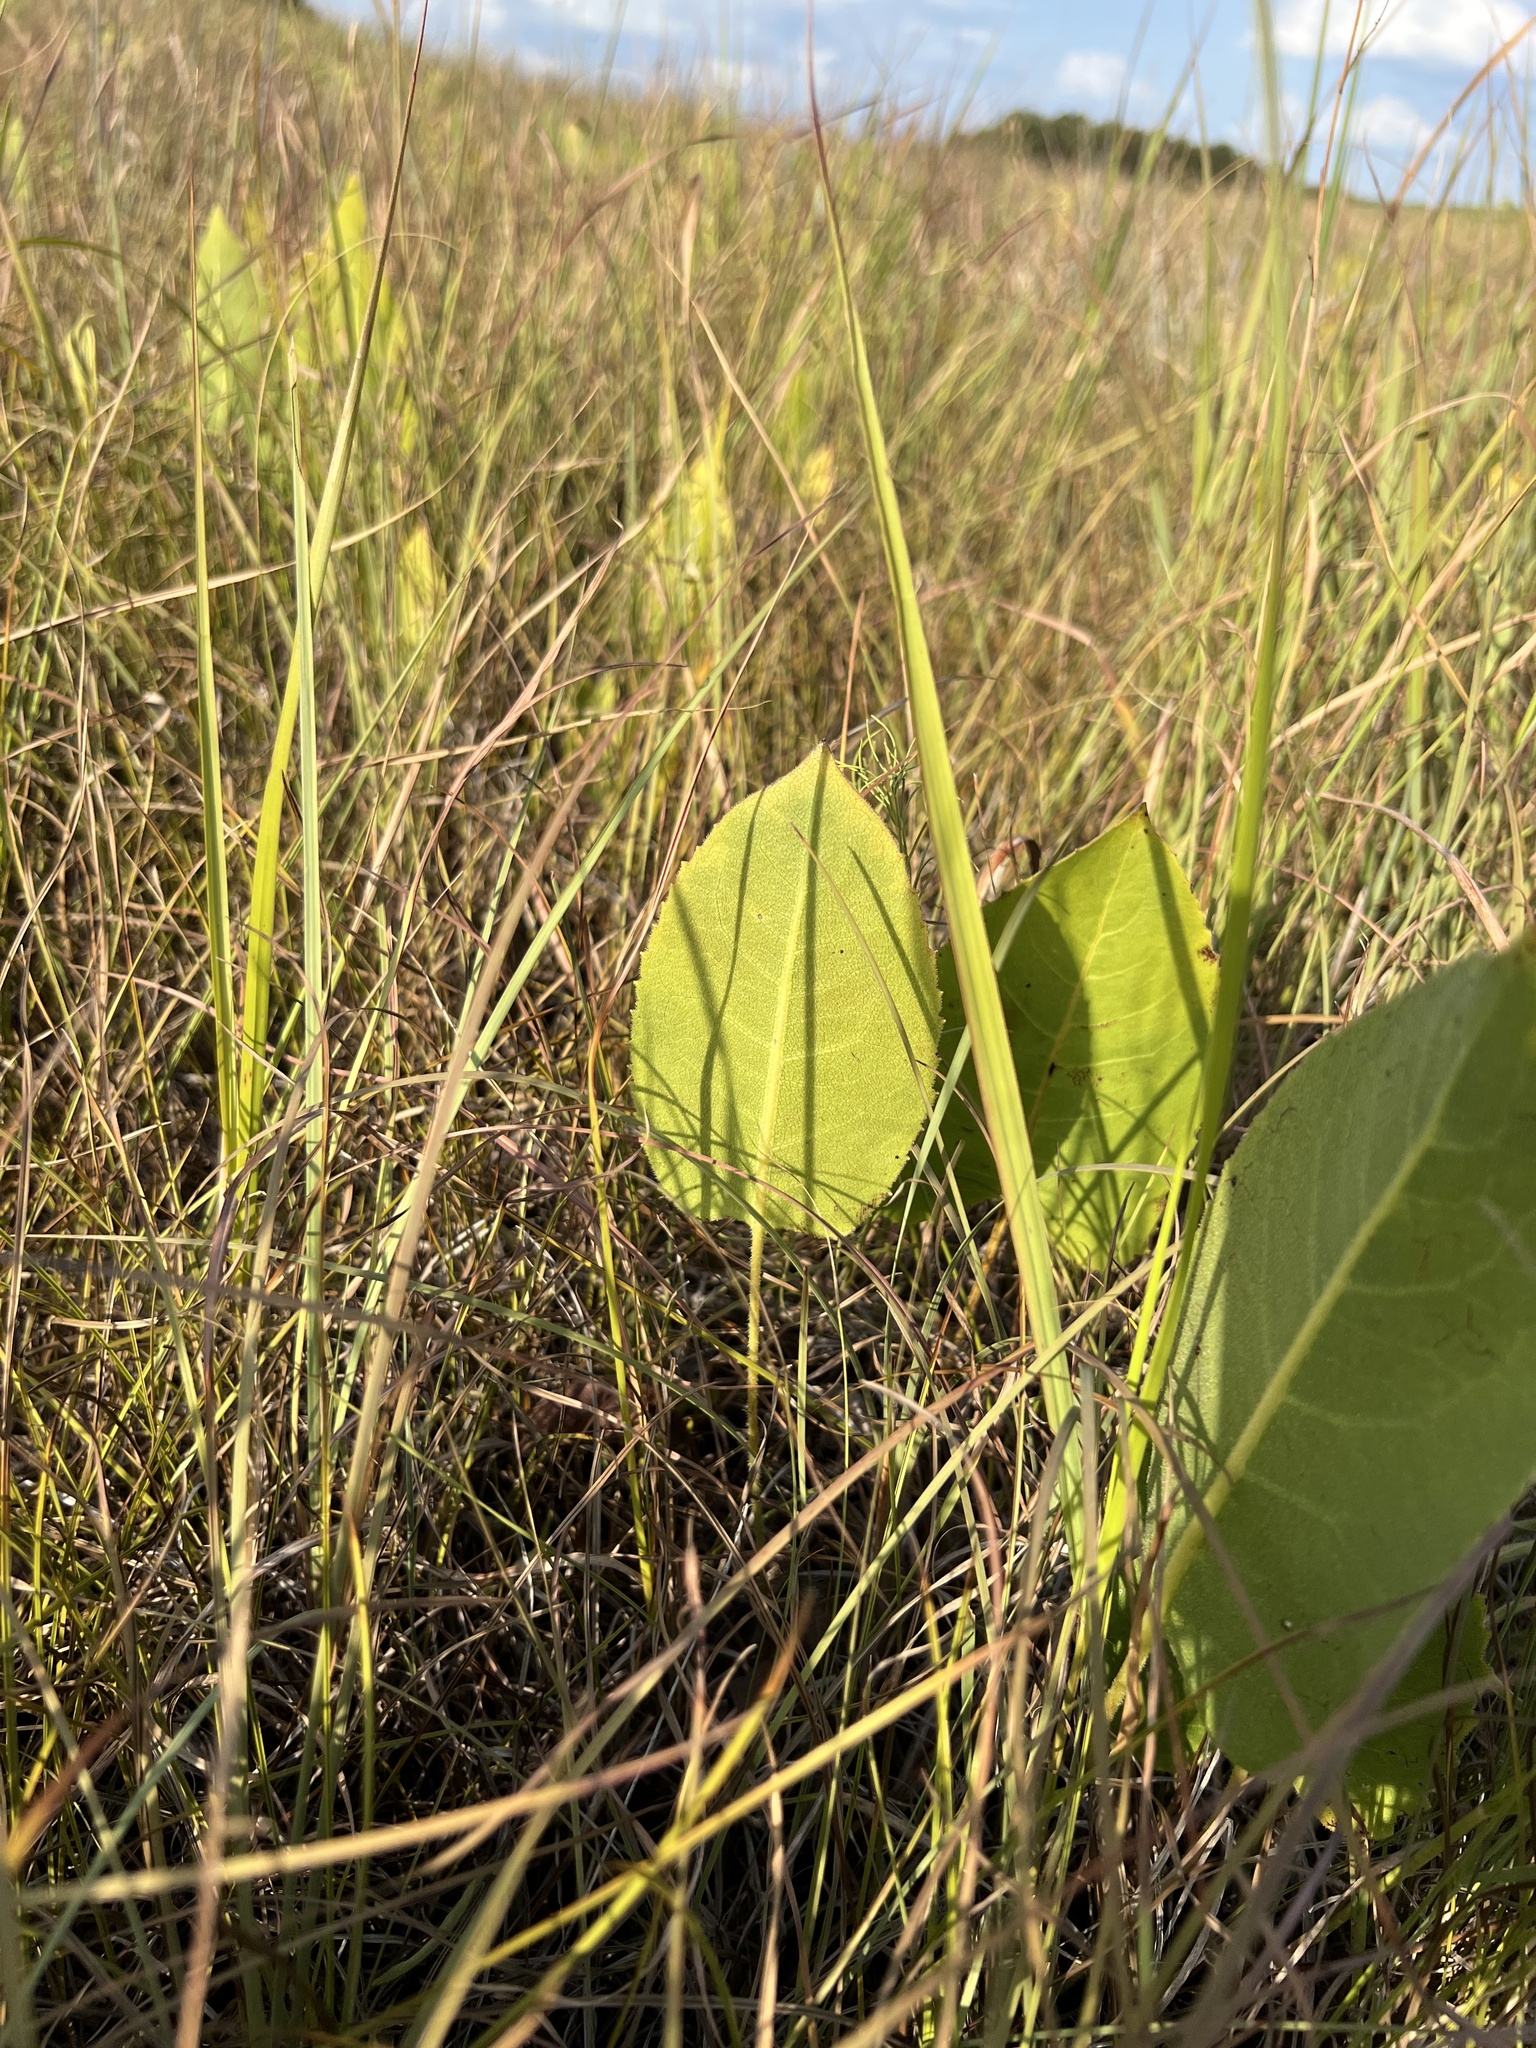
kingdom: Plantae
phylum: Tracheophyta
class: Magnoliopsida
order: Asterales
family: Asteraceae
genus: Silphium
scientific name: Silphium terebinthinaceum
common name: Basal-leaf rosinweed
